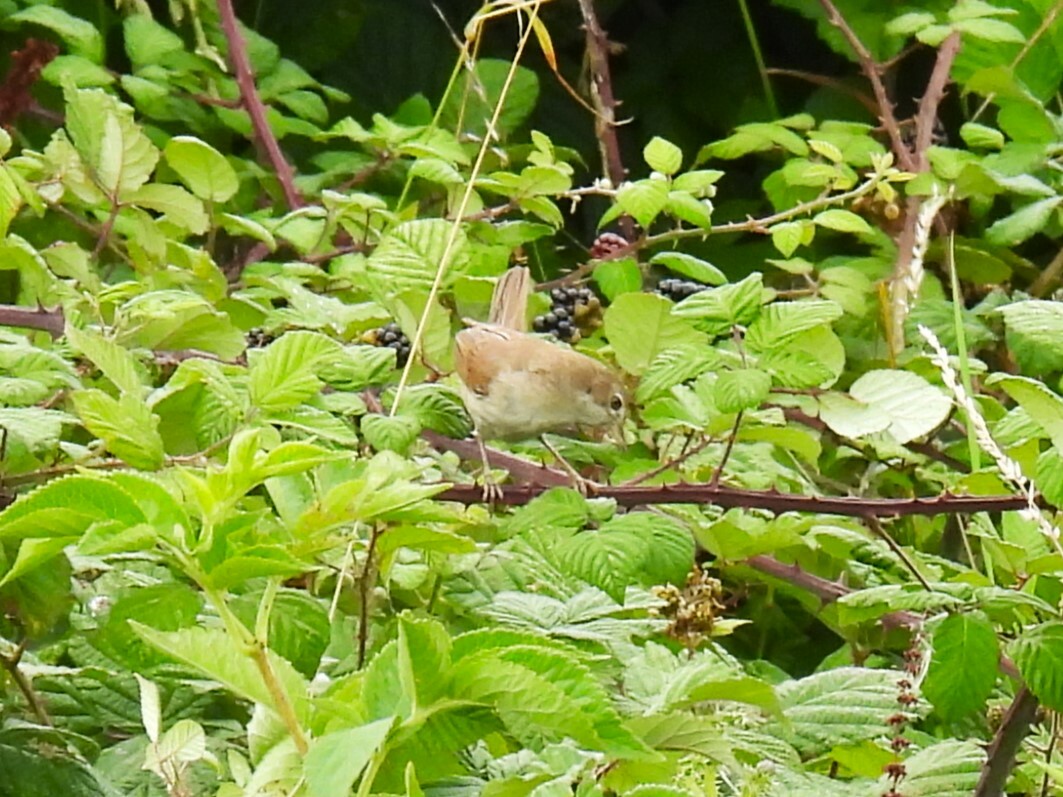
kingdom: Animalia
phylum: Chordata
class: Aves
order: Passeriformes
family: Sylviidae
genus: Sylvia
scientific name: Sylvia communis
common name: Common whitethroat
